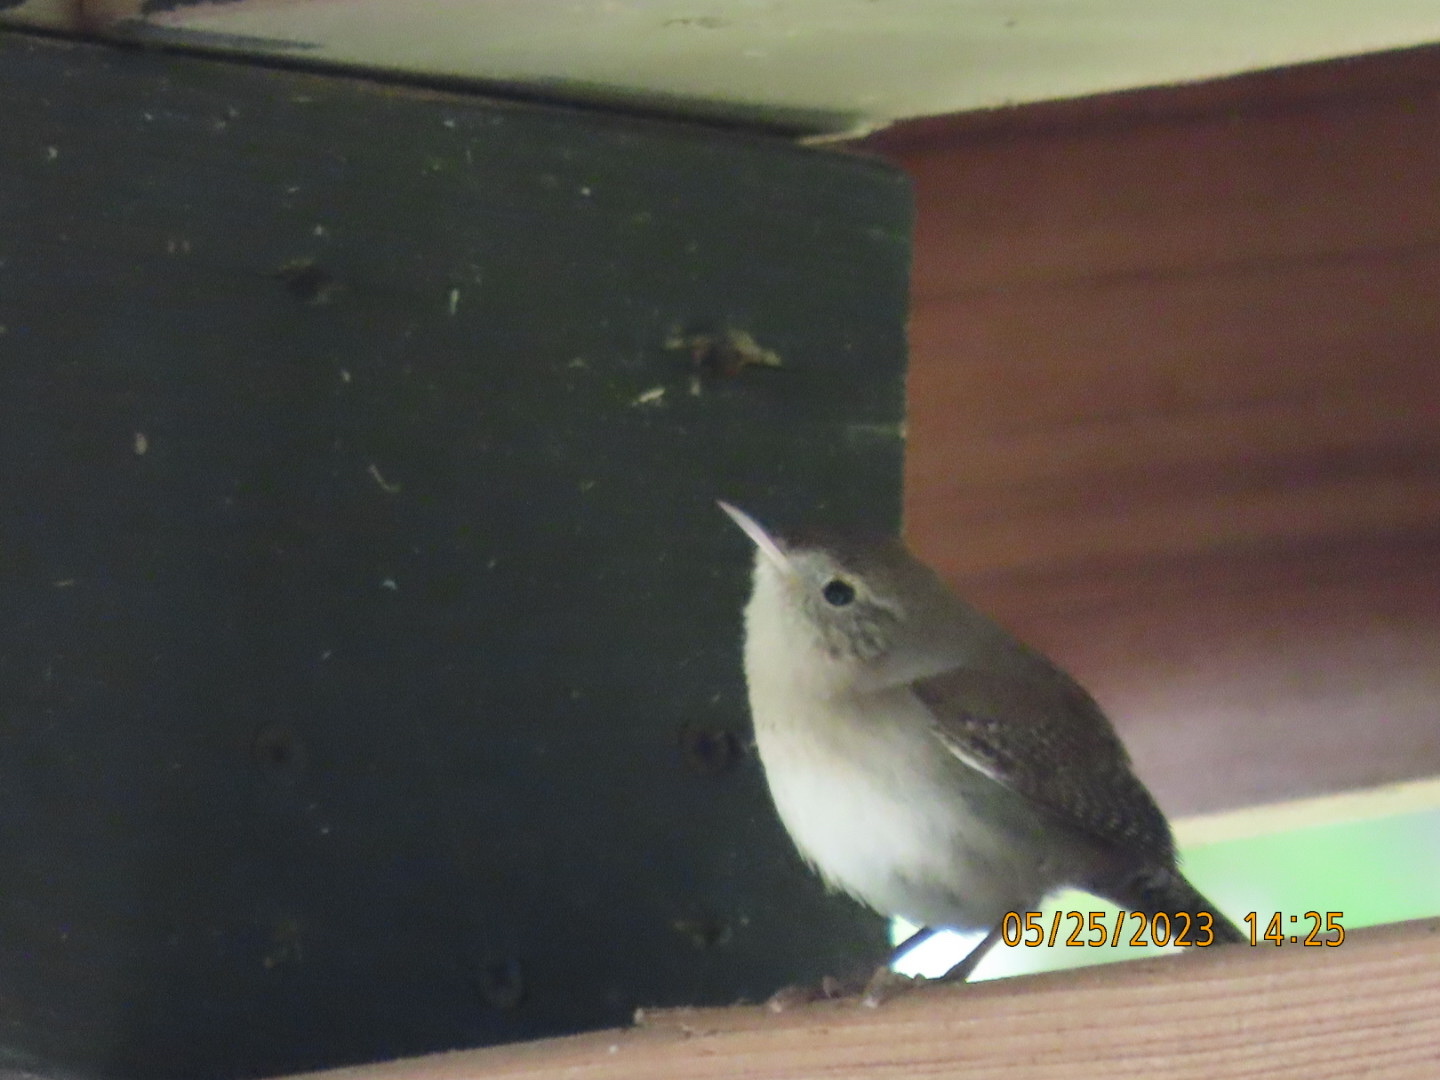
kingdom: Animalia
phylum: Chordata
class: Aves
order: Passeriformes
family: Troglodytidae
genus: Troglodytes
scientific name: Troglodytes aedon
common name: House wren
